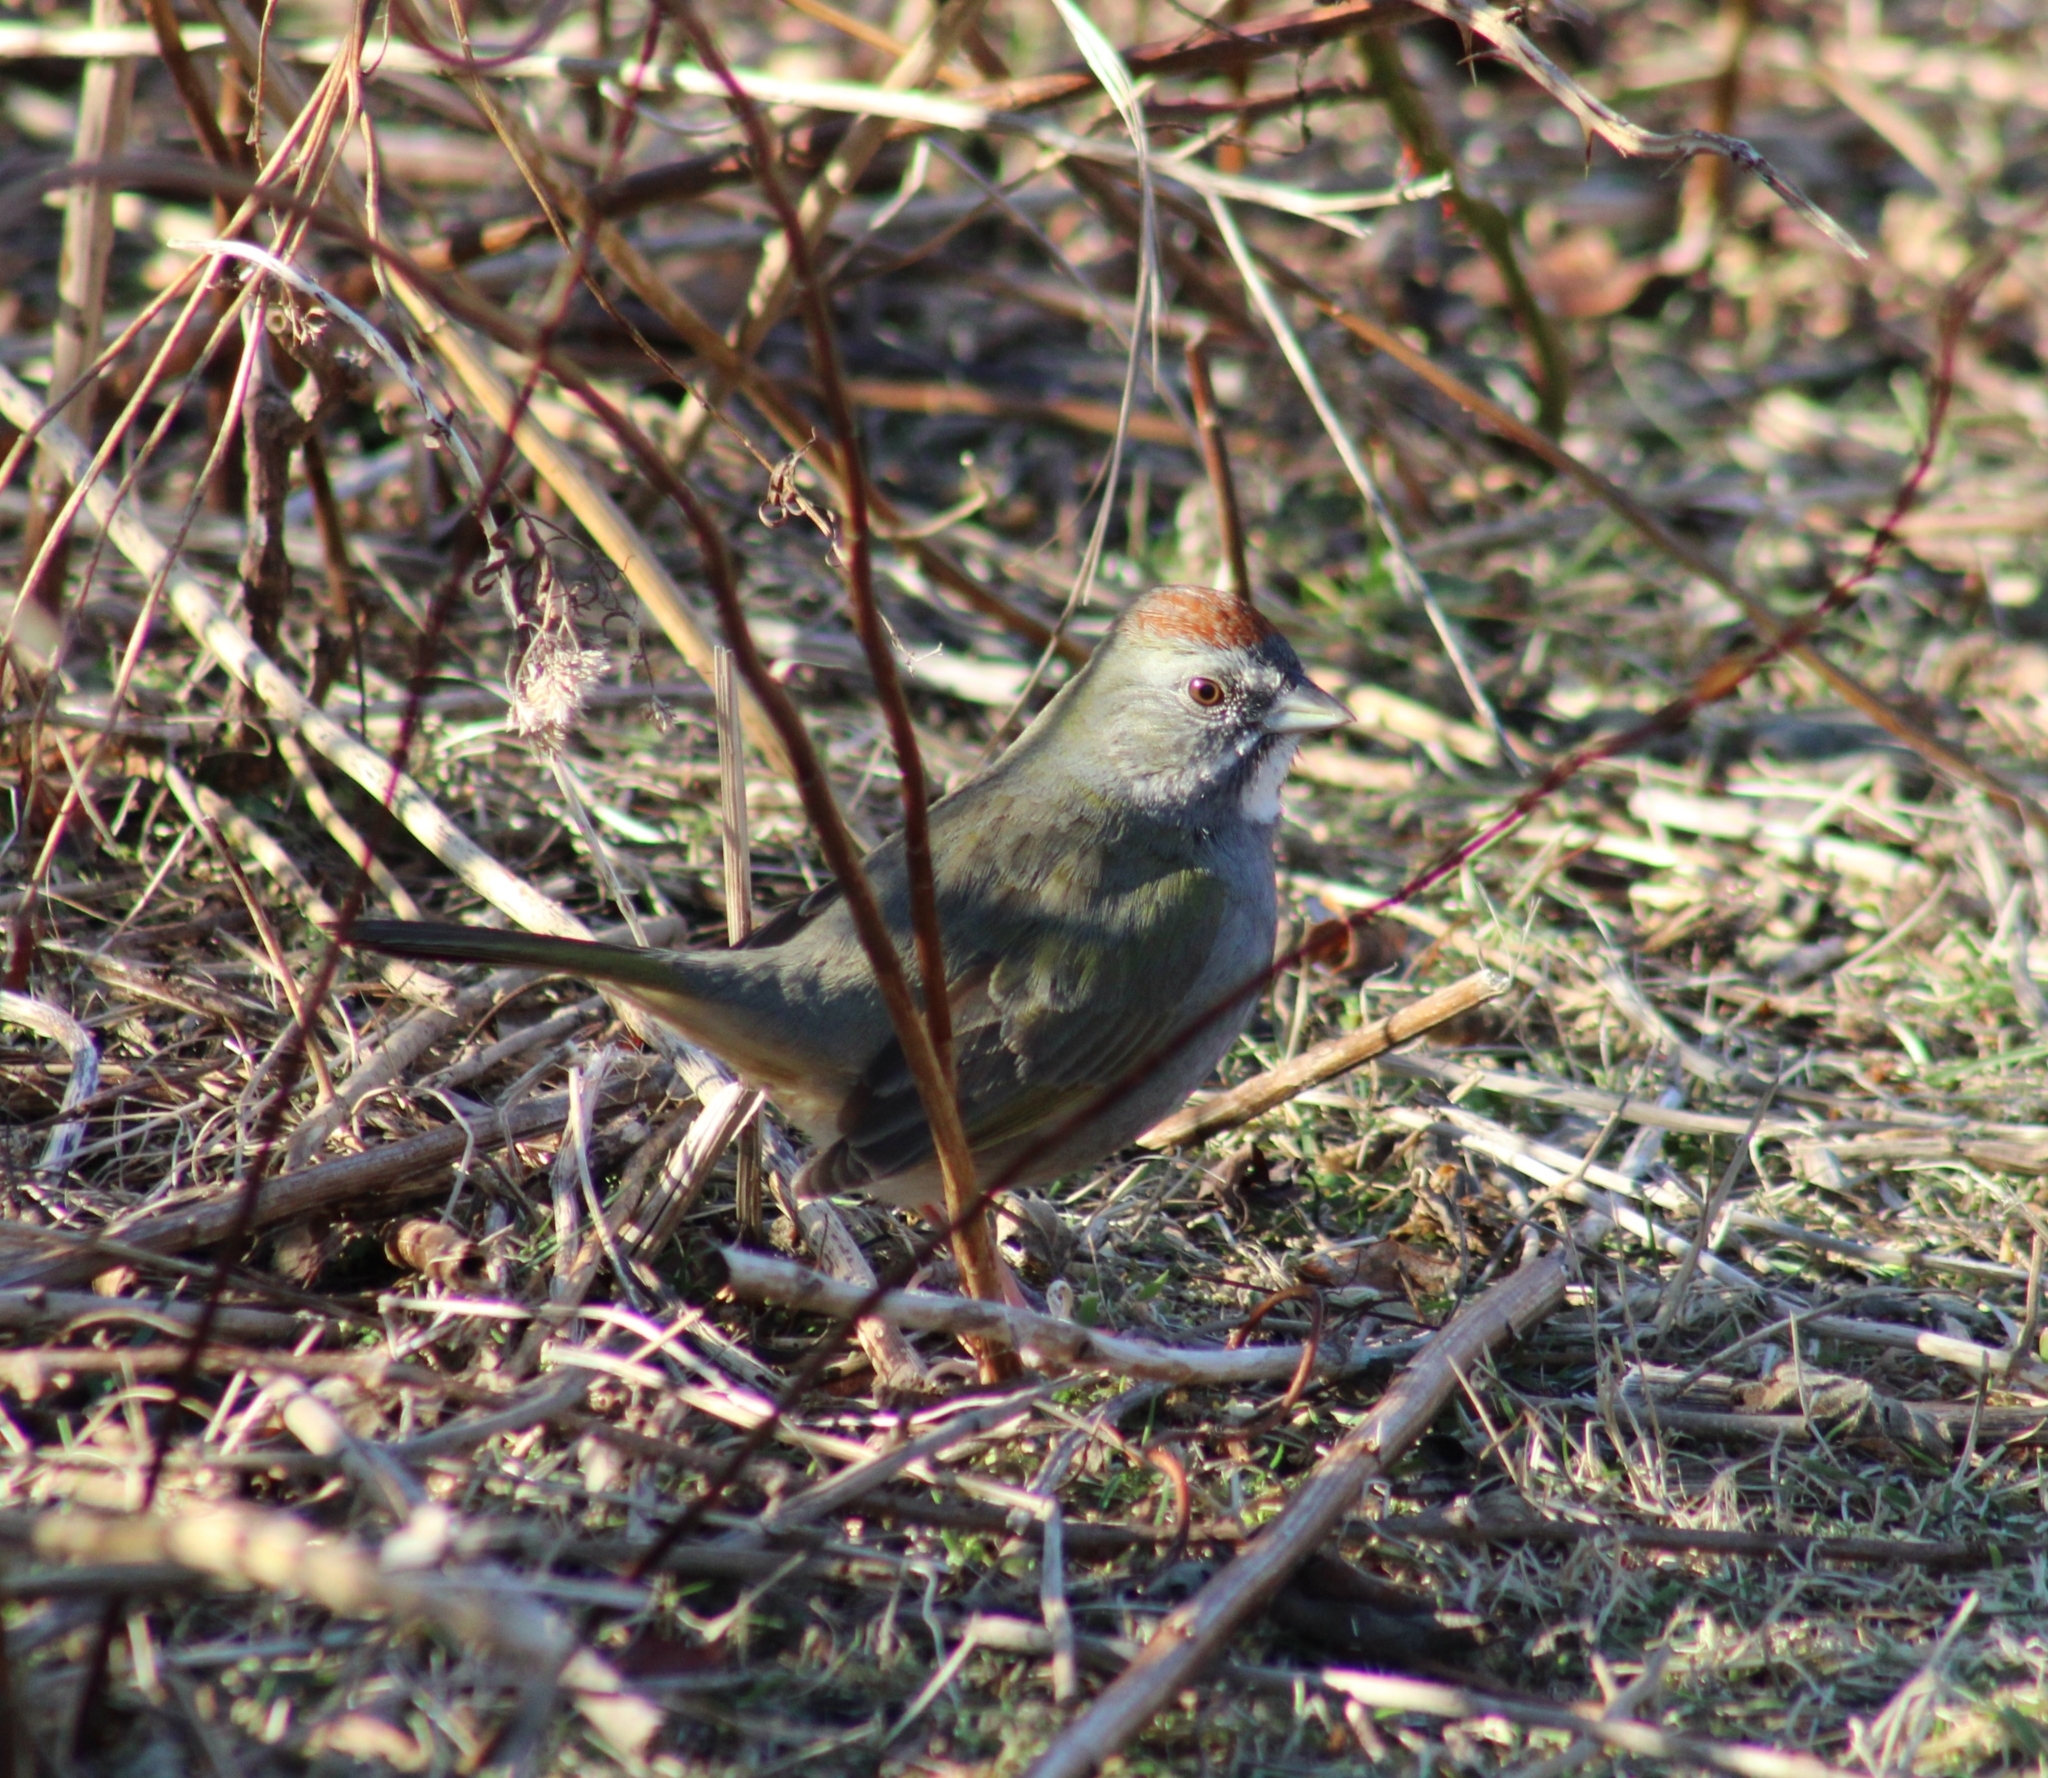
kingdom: Animalia
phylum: Chordata
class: Aves
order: Passeriformes
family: Passerellidae
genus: Pipilo
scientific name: Pipilo chlorurus
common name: Green-tailed towhee
